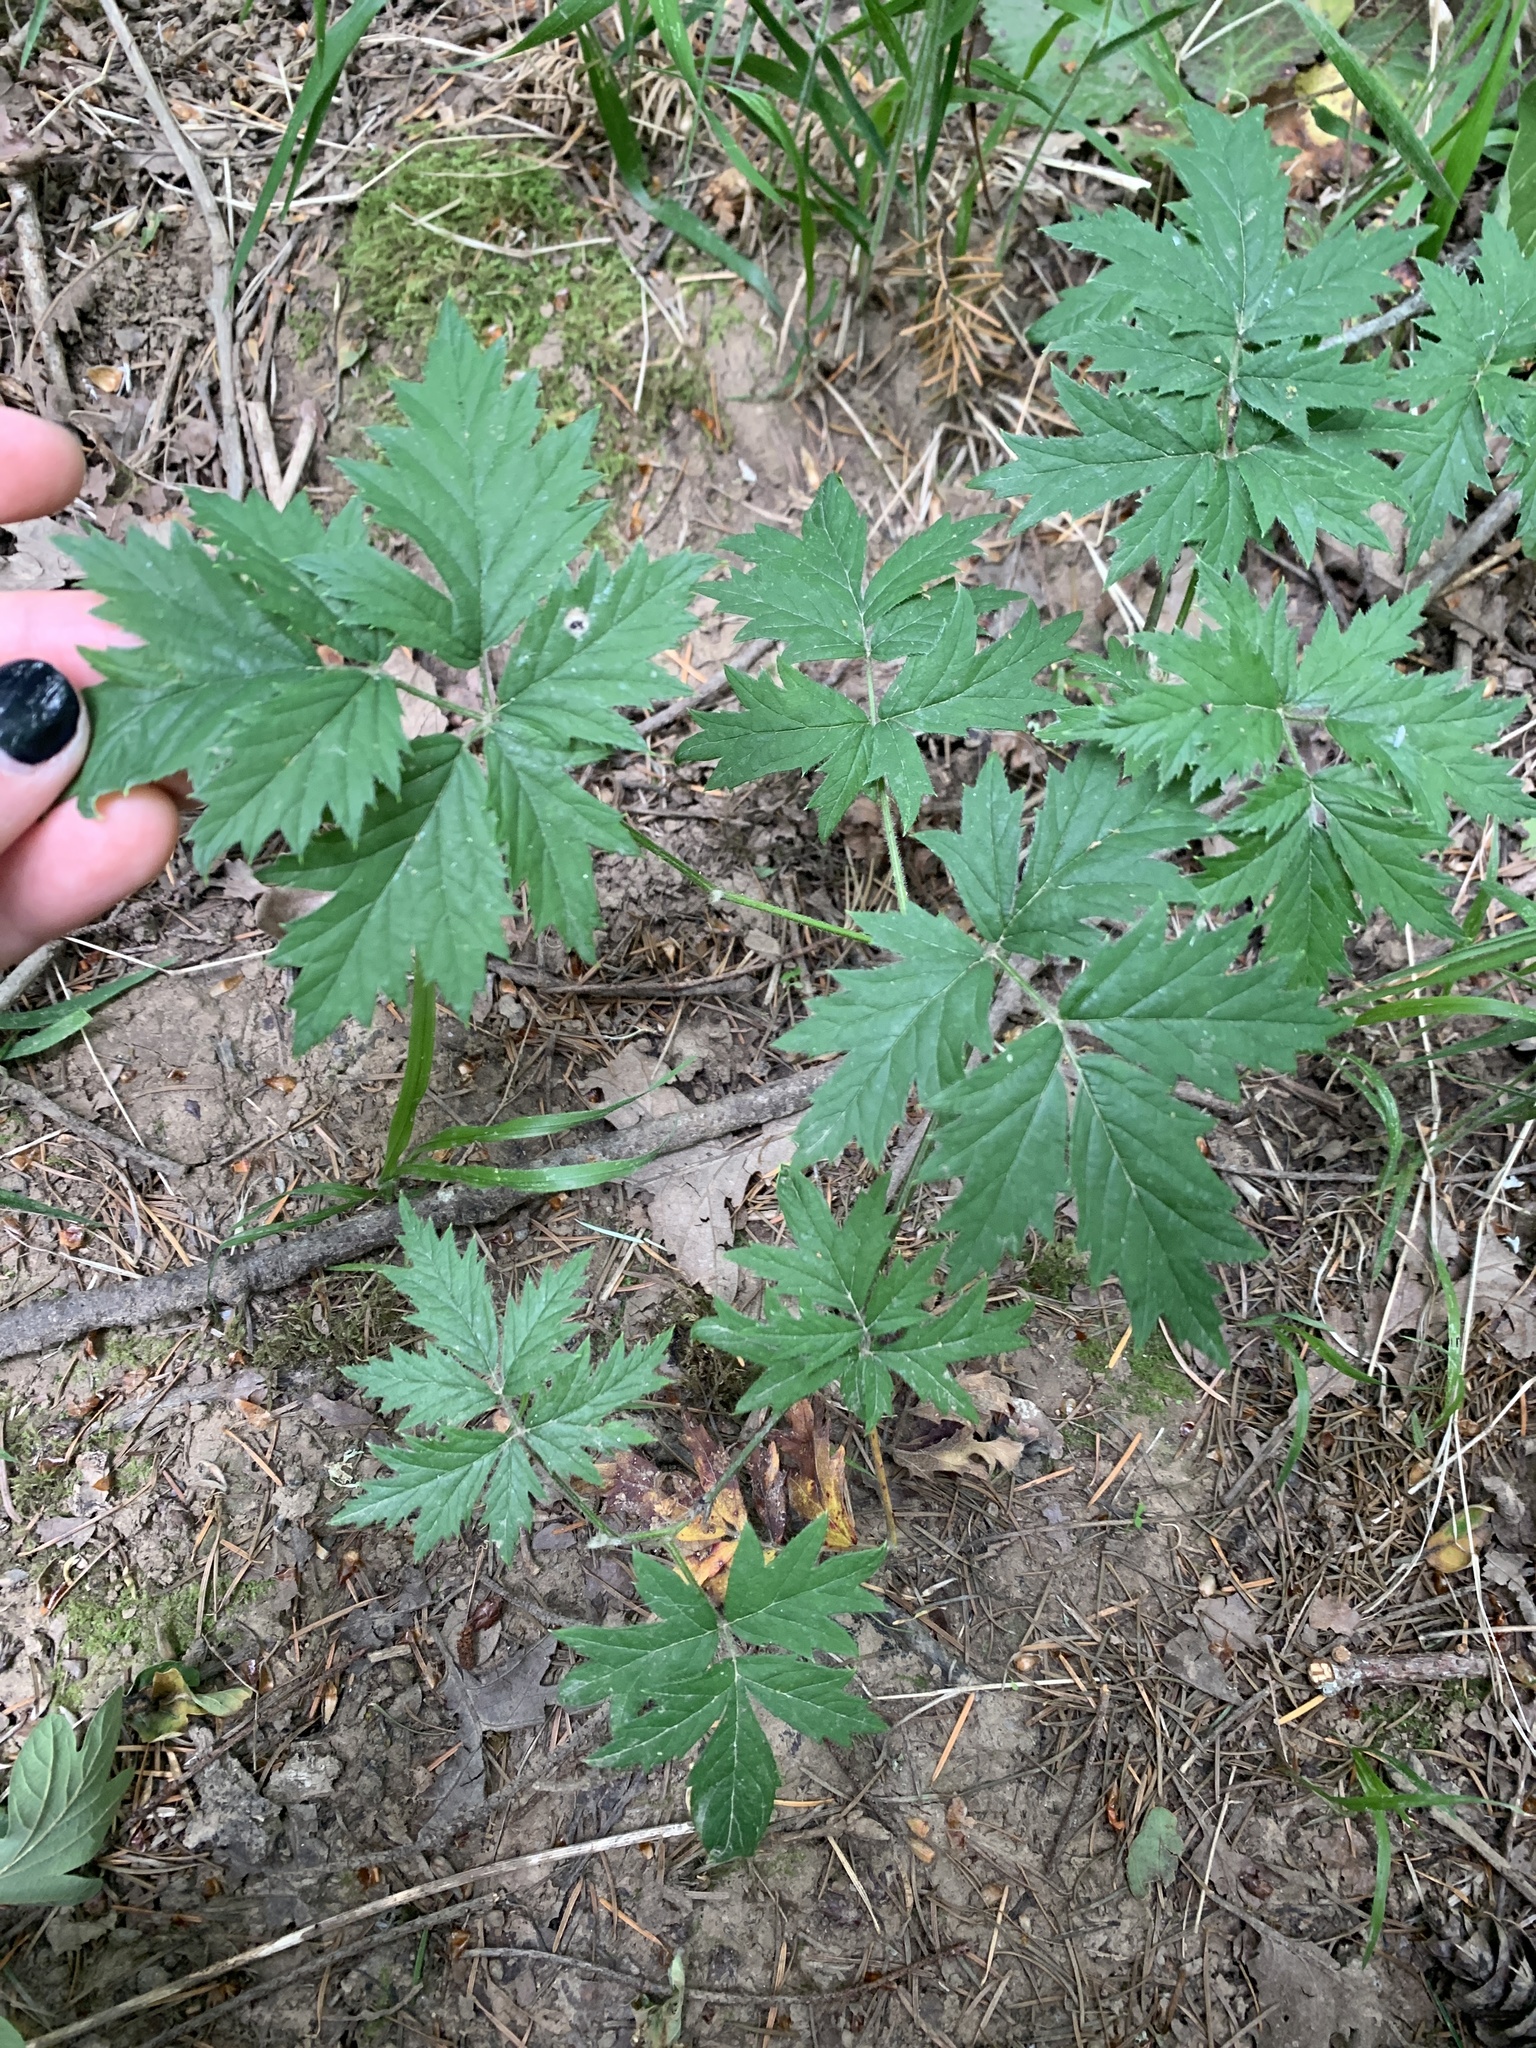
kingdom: Plantae
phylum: Tracheophyta
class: Magnoliopsida
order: Rosales
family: Rosaceae
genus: Rubus
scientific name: Rubus laciniatus
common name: Evergreen blackberry
